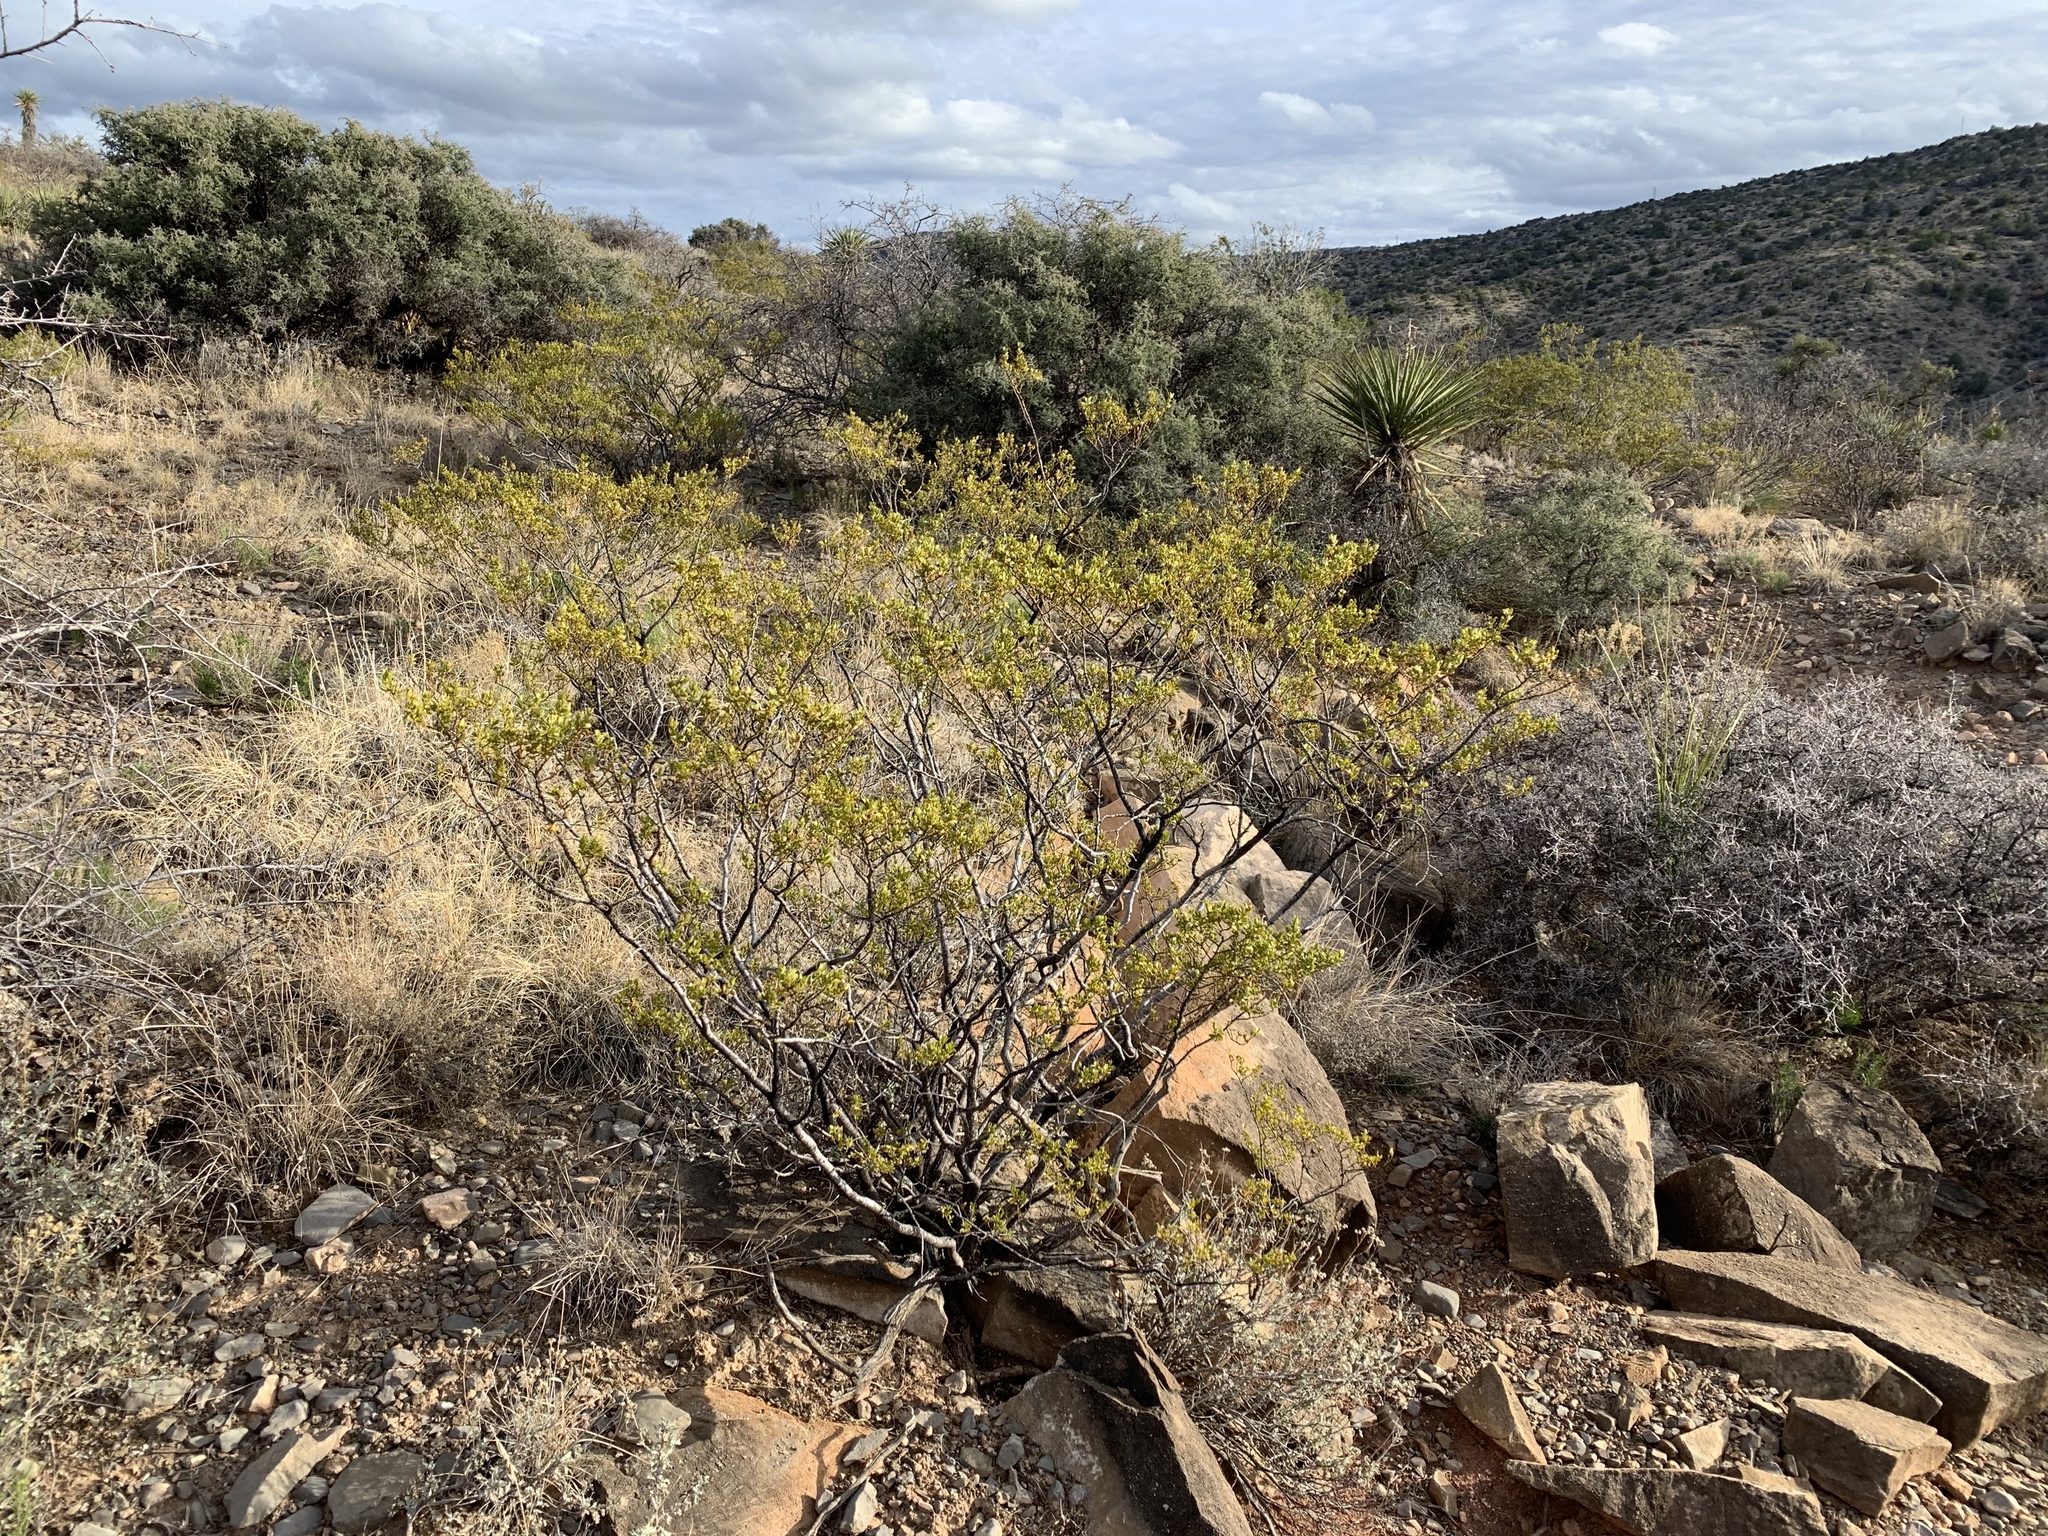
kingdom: Plantae
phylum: Tracheophyta
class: Magnoliopsida
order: Zygophyllales
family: Zygophyllaceae
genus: Larrea
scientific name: Larrea tridentata
